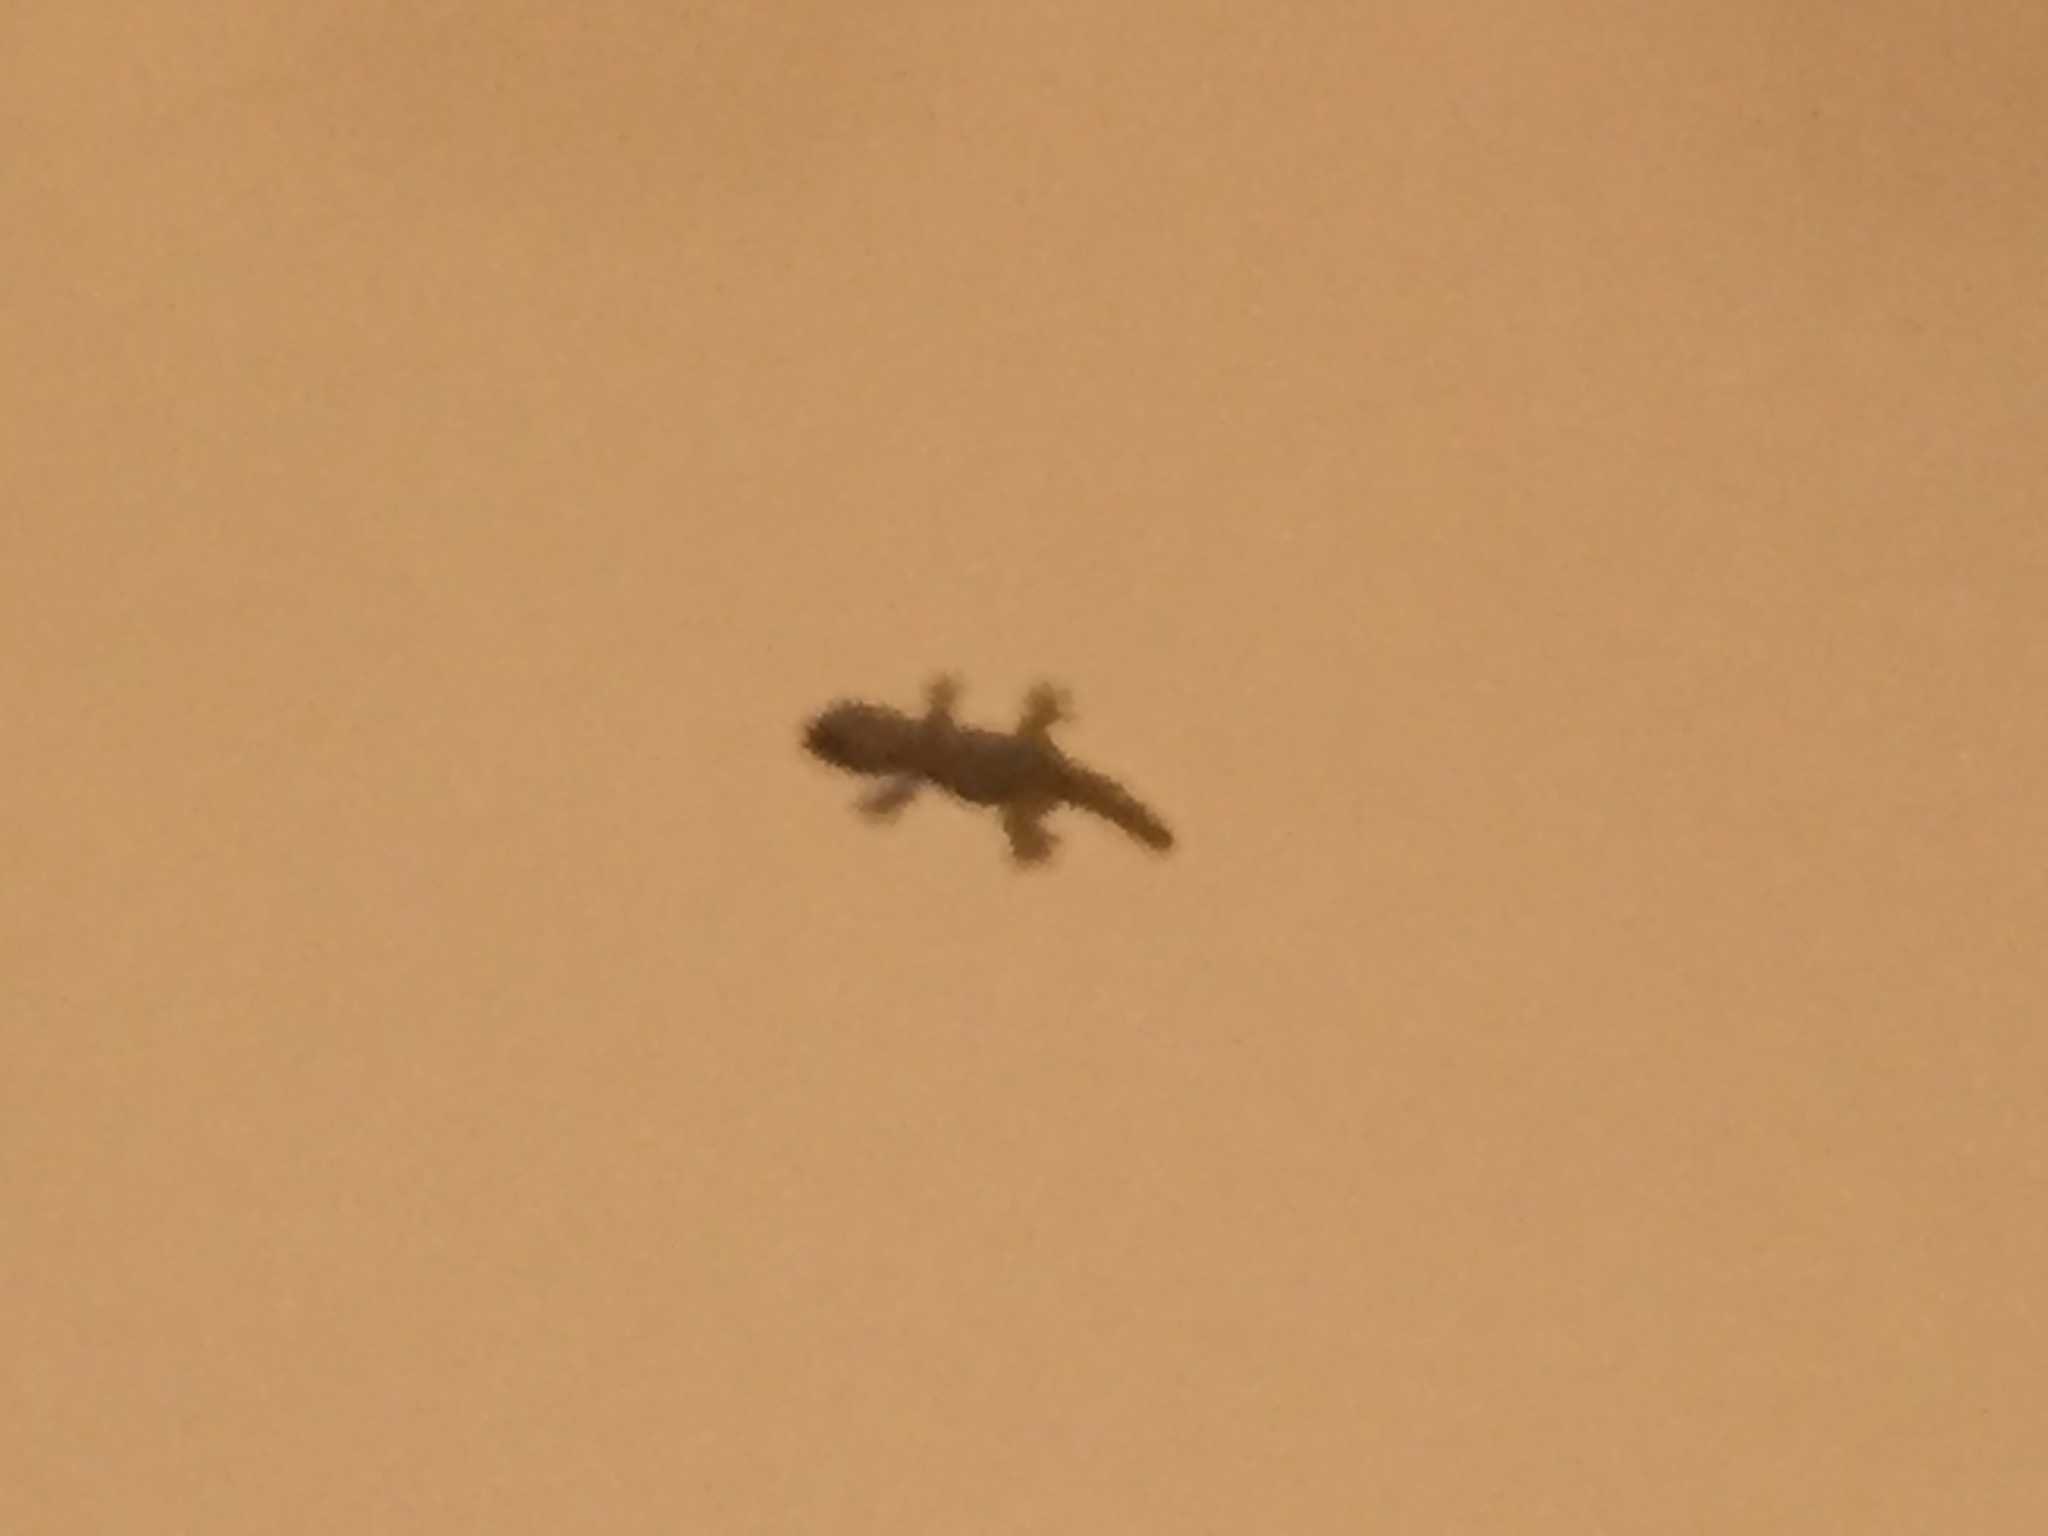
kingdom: Animalia
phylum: Chordata
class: Squamata
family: Phyllodactylidae
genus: Tarentola
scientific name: Tarentola mauritanica
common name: Moorish gecko
